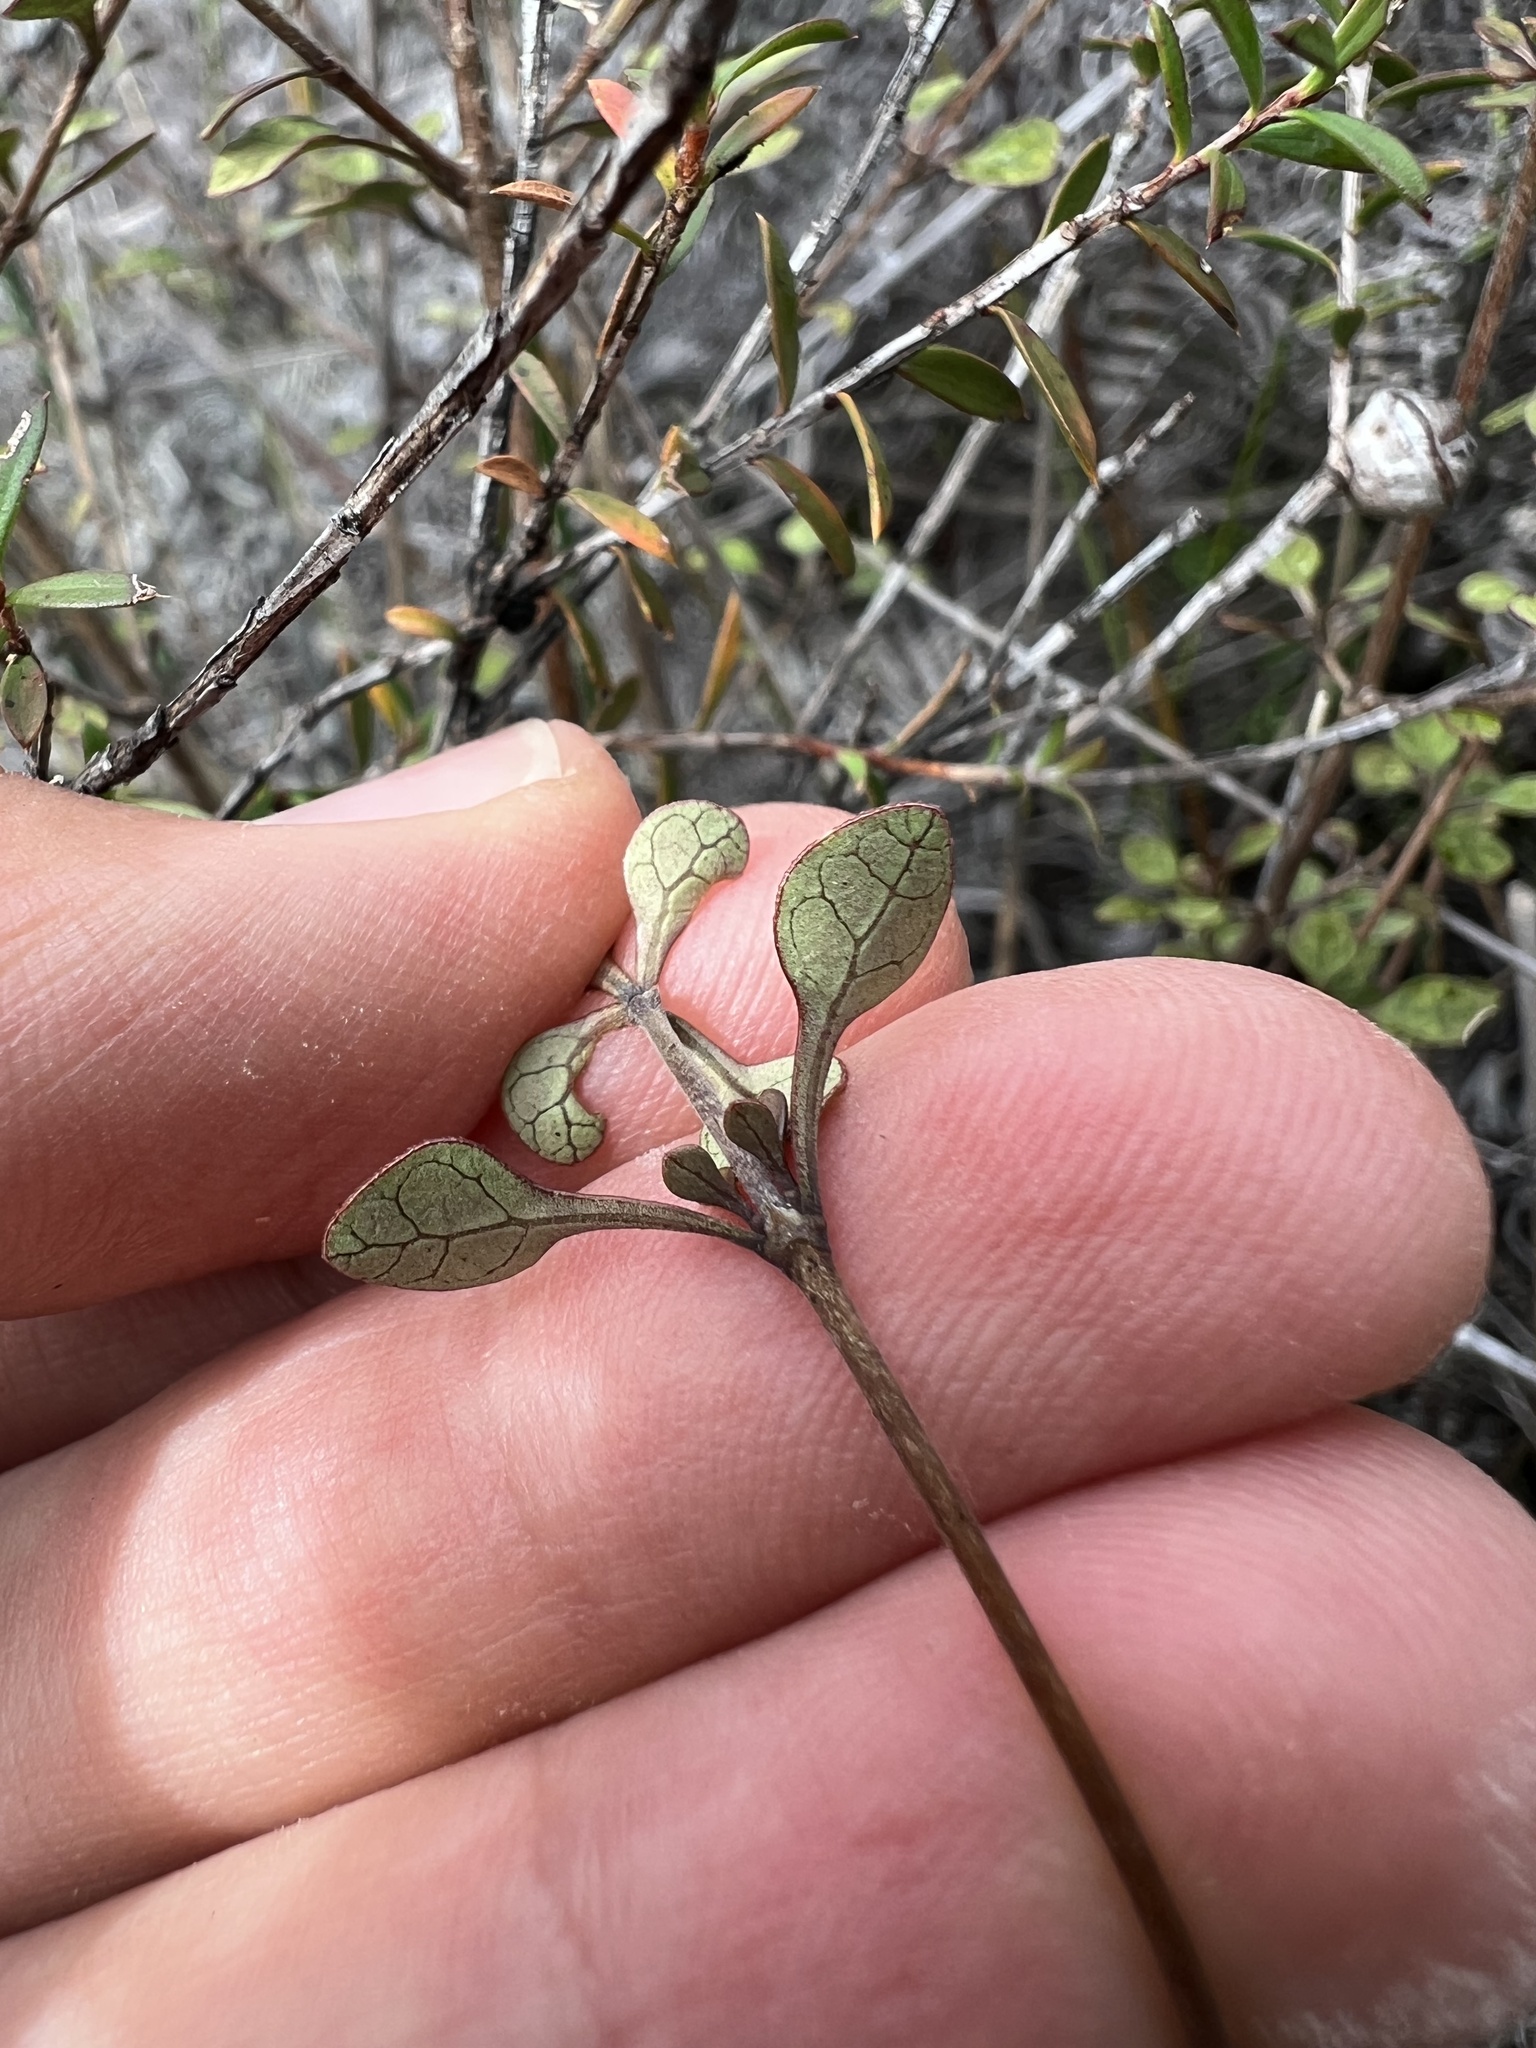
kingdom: Plantae
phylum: Tracheophyta
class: Magnoliopsida
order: Gentianales
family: Rubiaceae
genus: Coprosma
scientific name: Coprosma tenuicaulis
